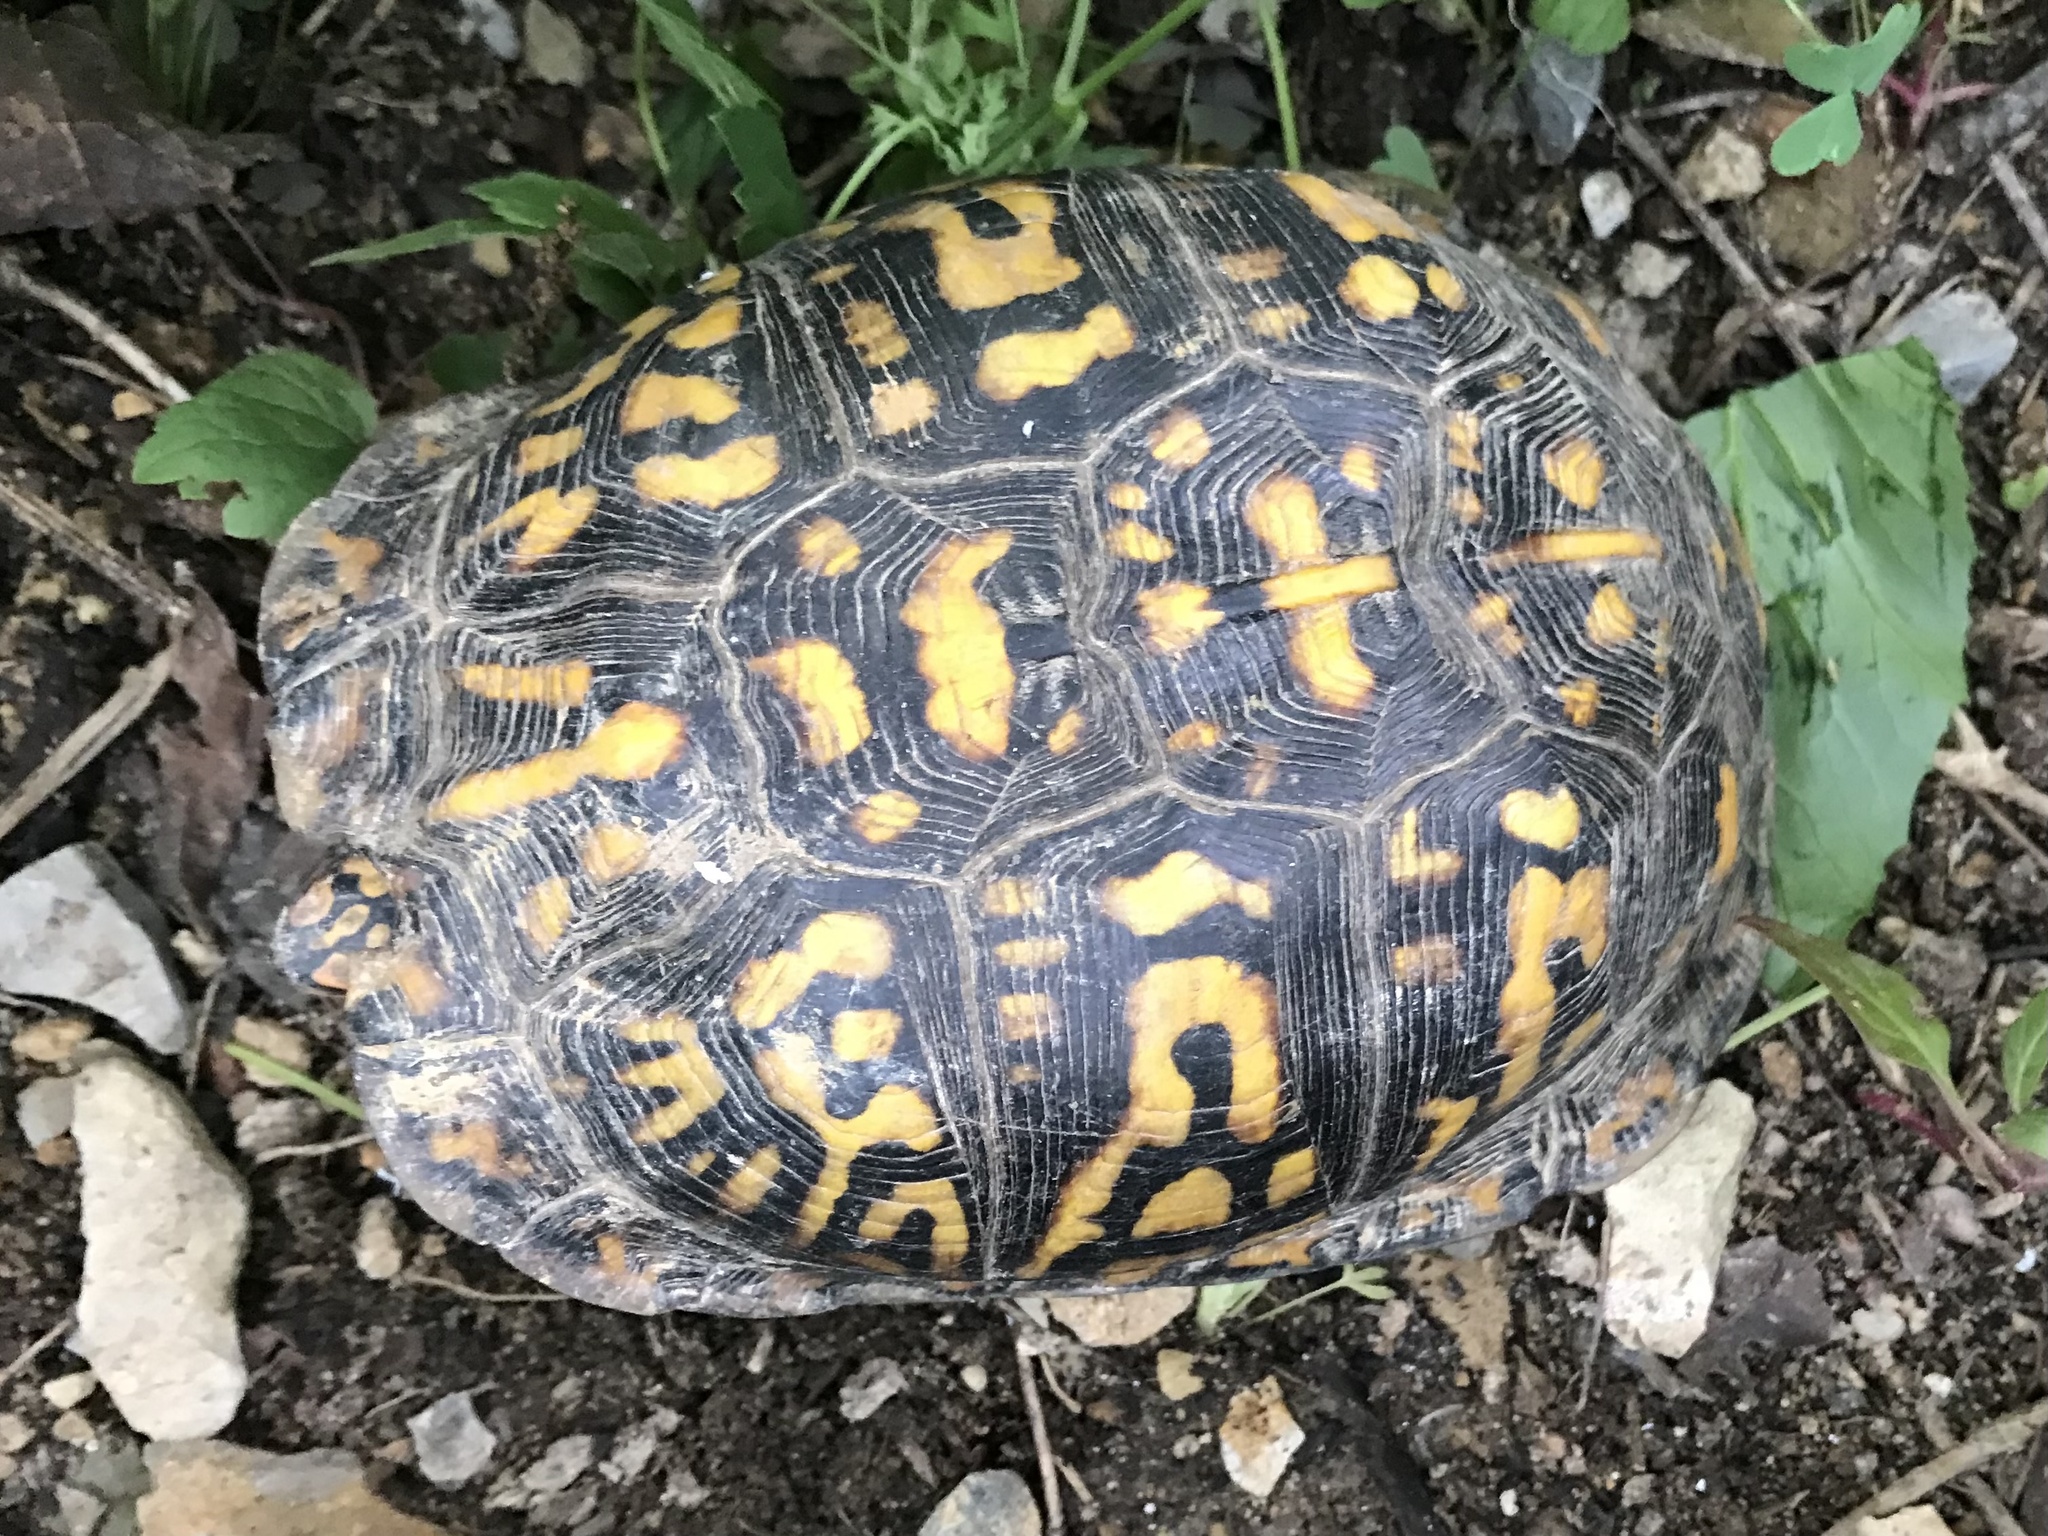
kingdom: Animalia
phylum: Chordata
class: Testudines
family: Emydidae
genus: Terrapene
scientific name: Terrapene carolina
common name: Common box turtle
